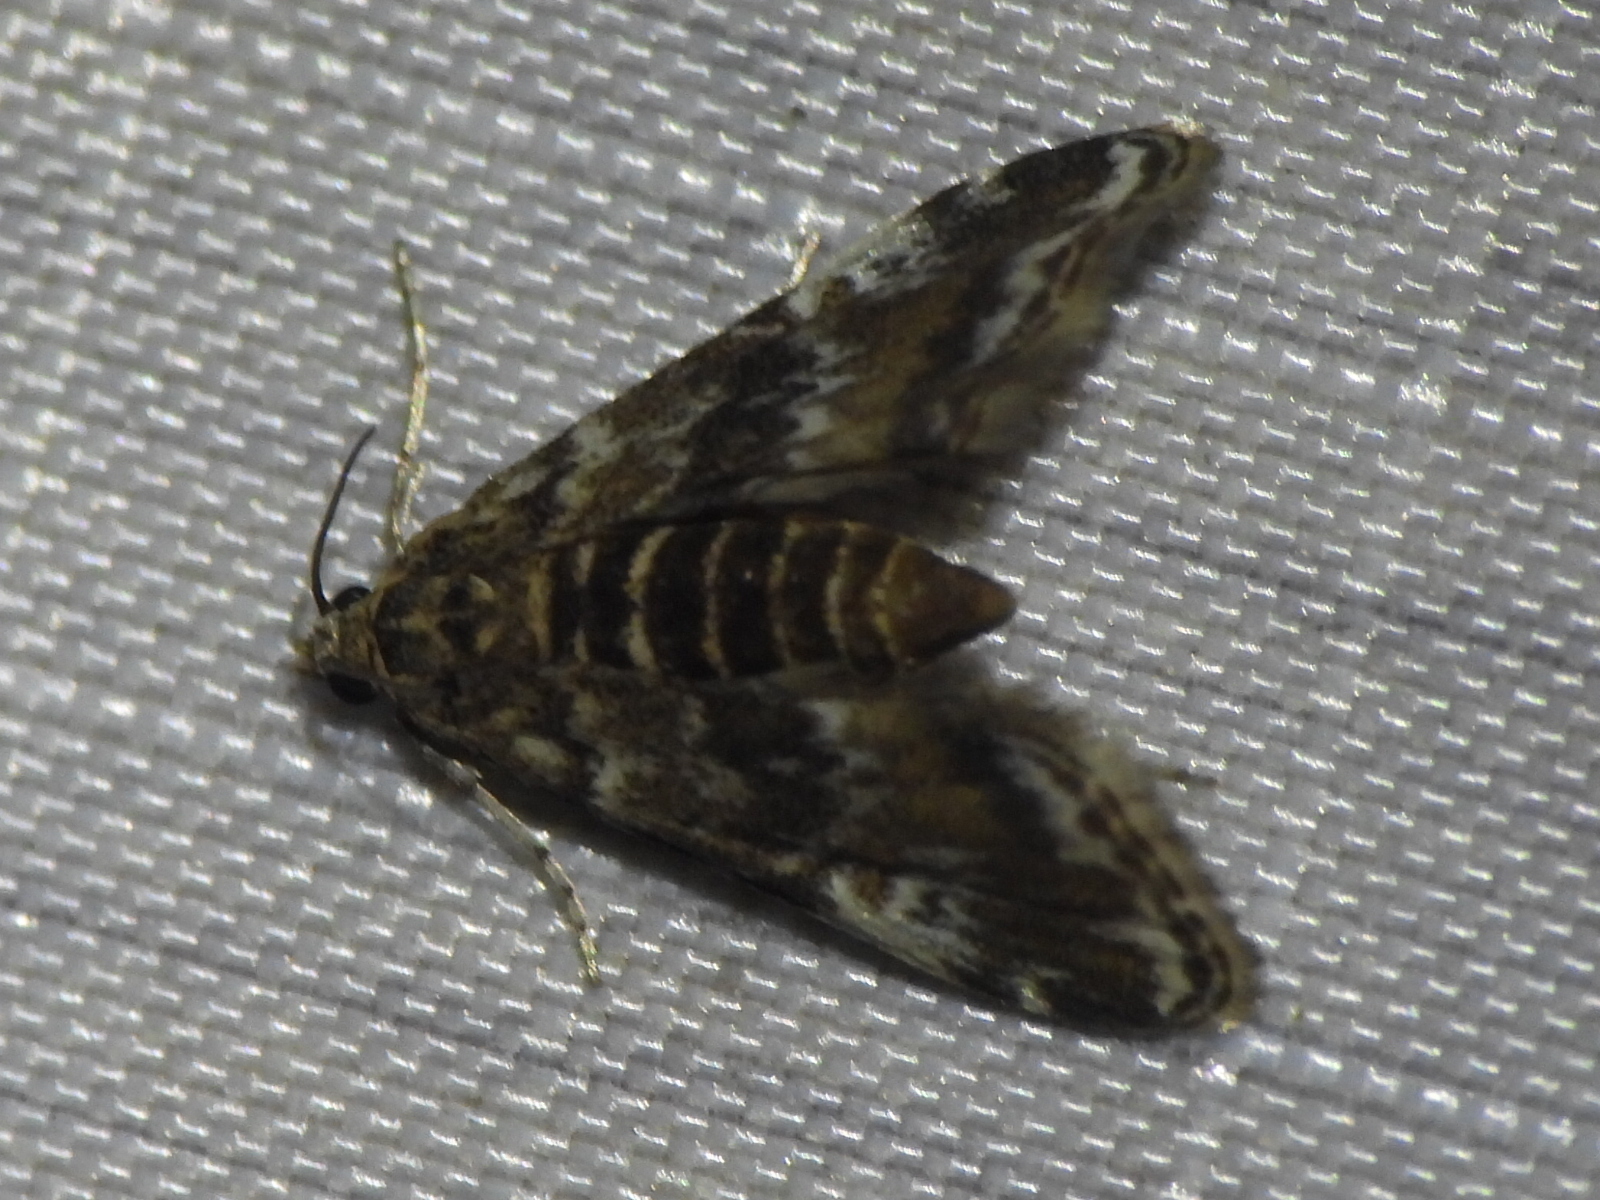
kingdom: Animalia
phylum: Arthropoda
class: Insecta
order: Lepidoptera
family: Crambidae
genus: Elophila
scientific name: Elophila obliteralis
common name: Waterlily leafcutter moth
